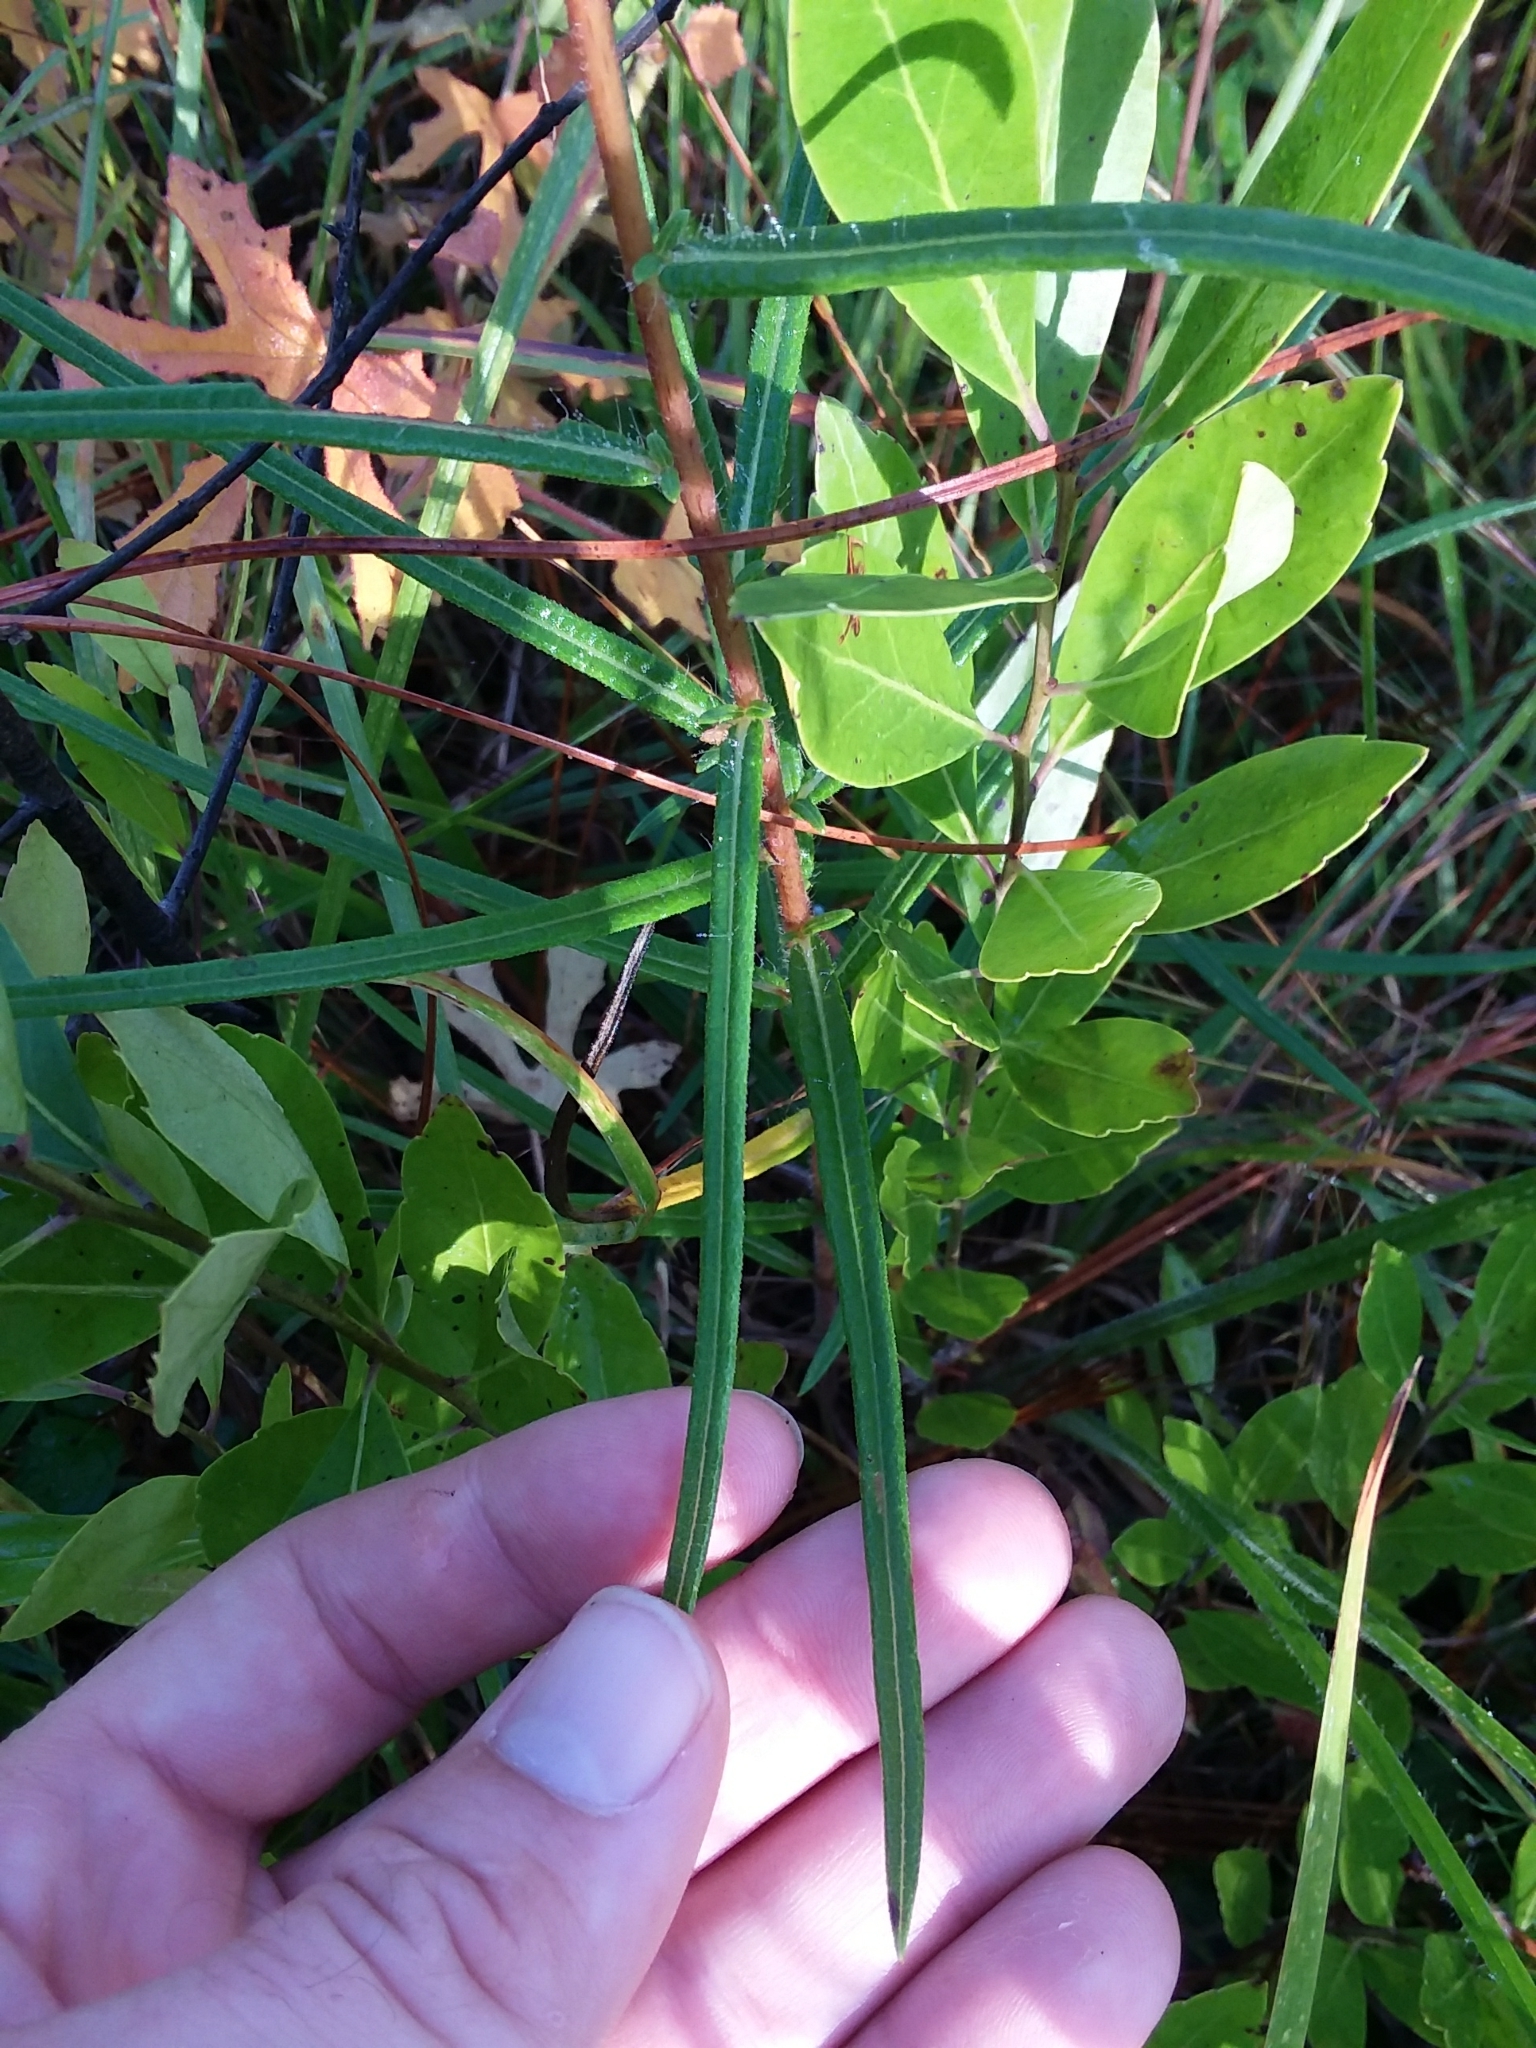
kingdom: Plantae
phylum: Tracheophyta
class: Magnoliopsida
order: Asterales
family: Asteraceae
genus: Helianthus
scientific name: Helianthus angustifolius
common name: Swamp sunflower
